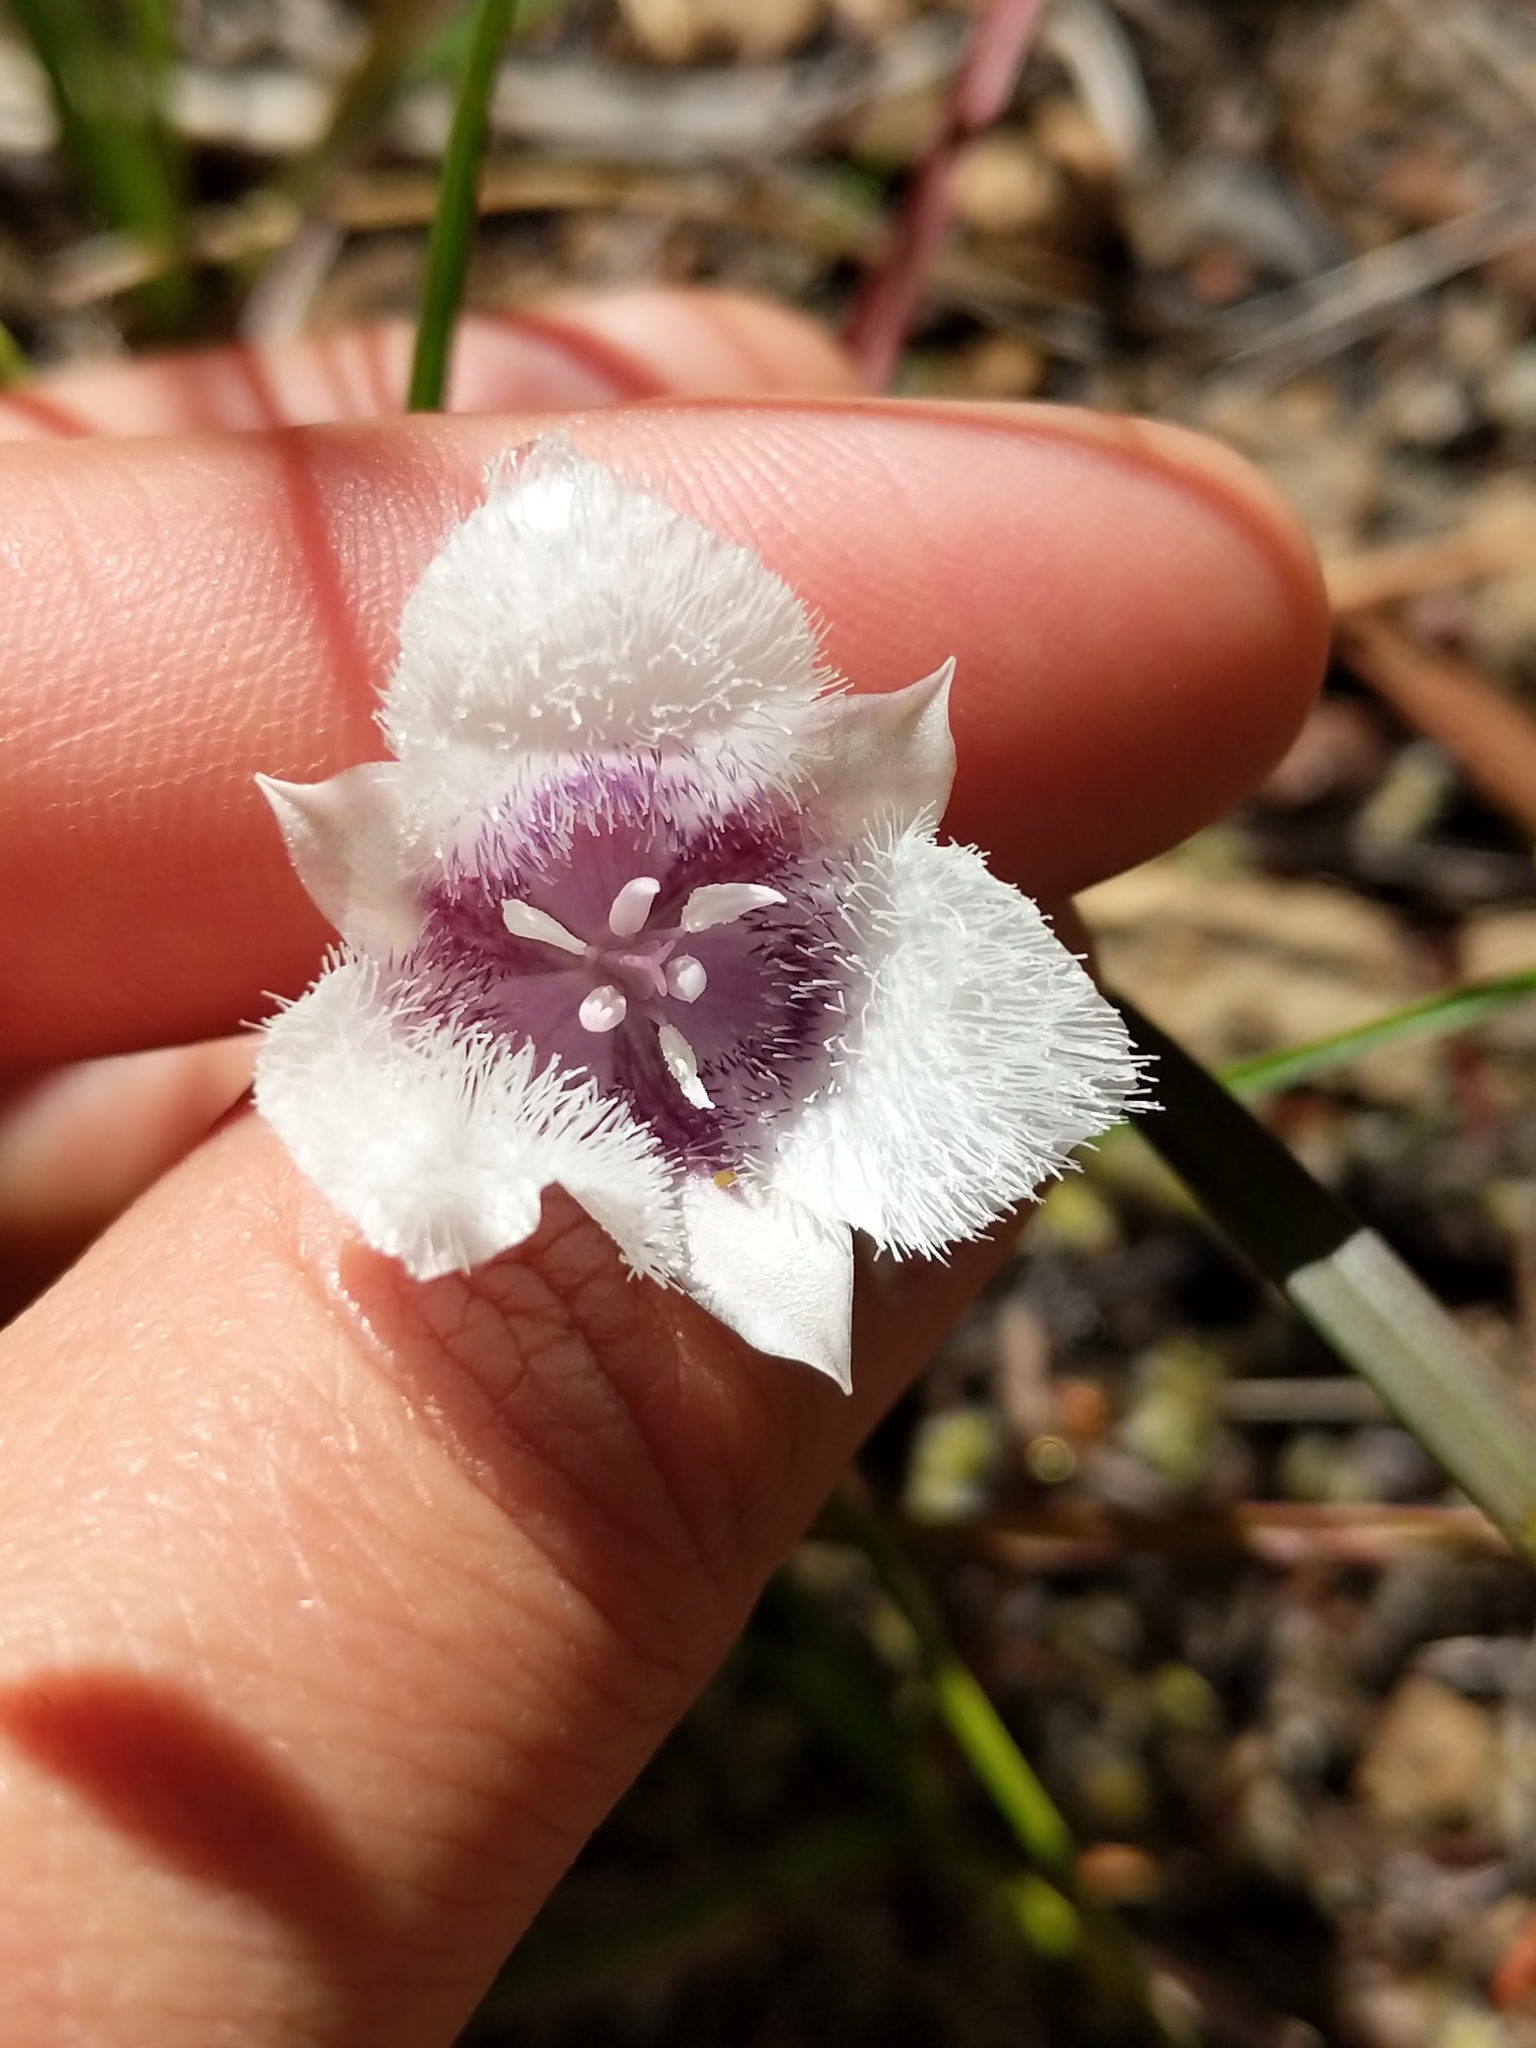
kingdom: Plantae
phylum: Tracheophyta
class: Liliopsida
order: Liliales
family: Liliaceae
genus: Calochortus
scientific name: Calochortus tolmiei
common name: Pussy-ears
